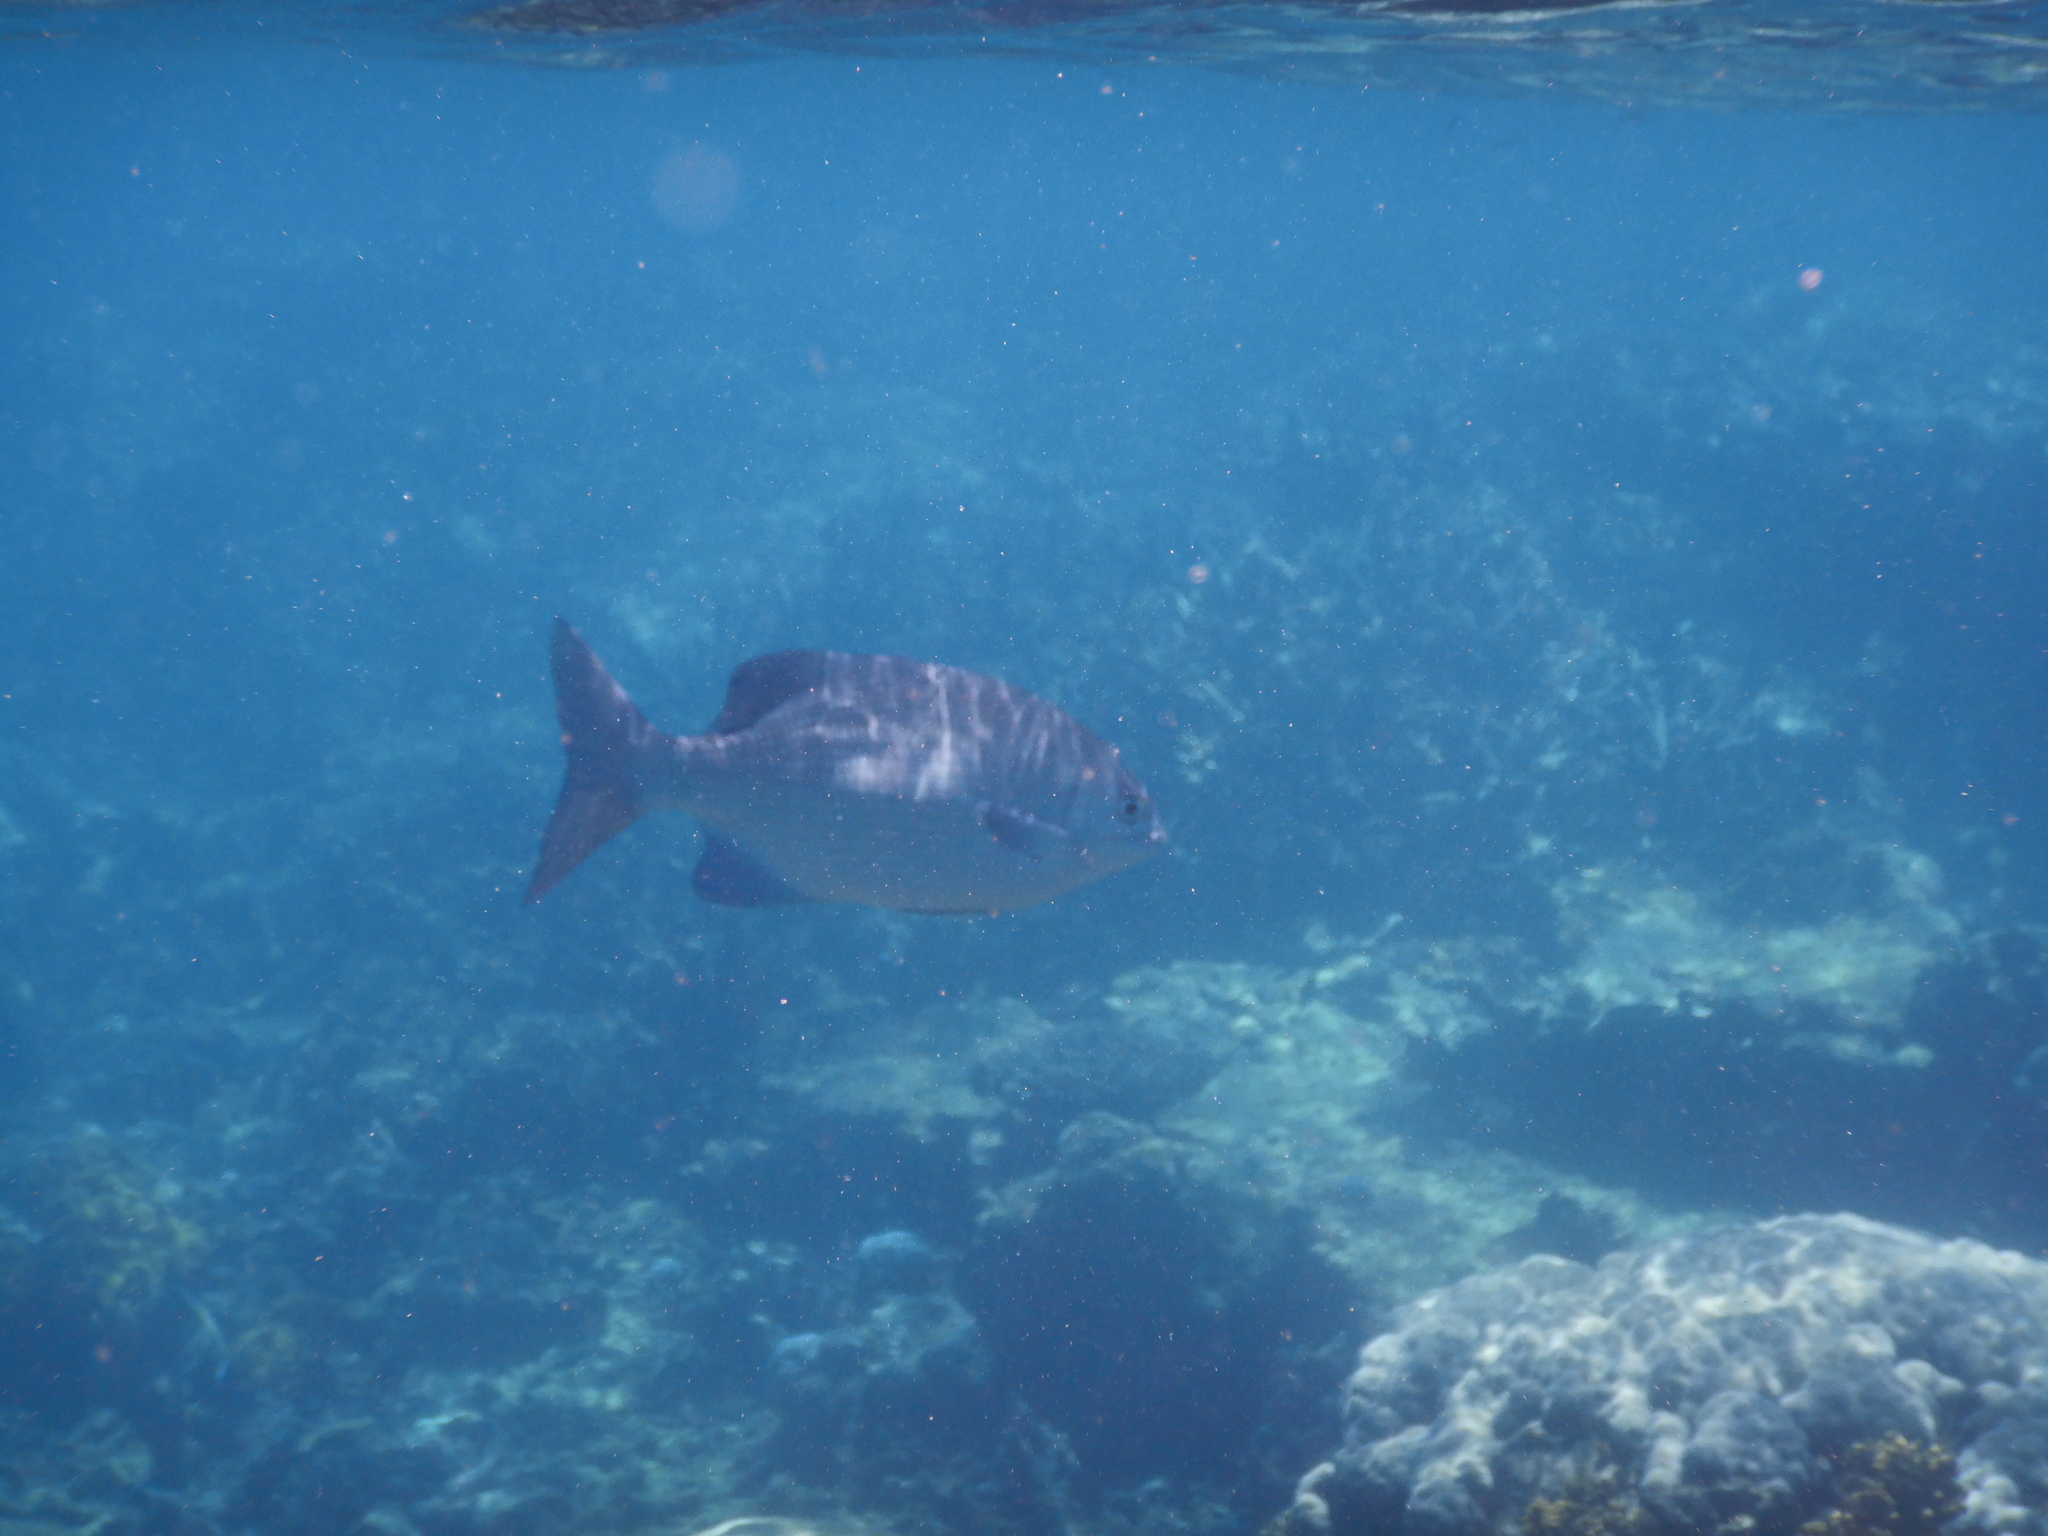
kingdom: Animalia
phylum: Chordata
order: Perciformes
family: Kyphosidae
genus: Kyphosus
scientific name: Kyphosus cinerascens
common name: Topsail drummer
